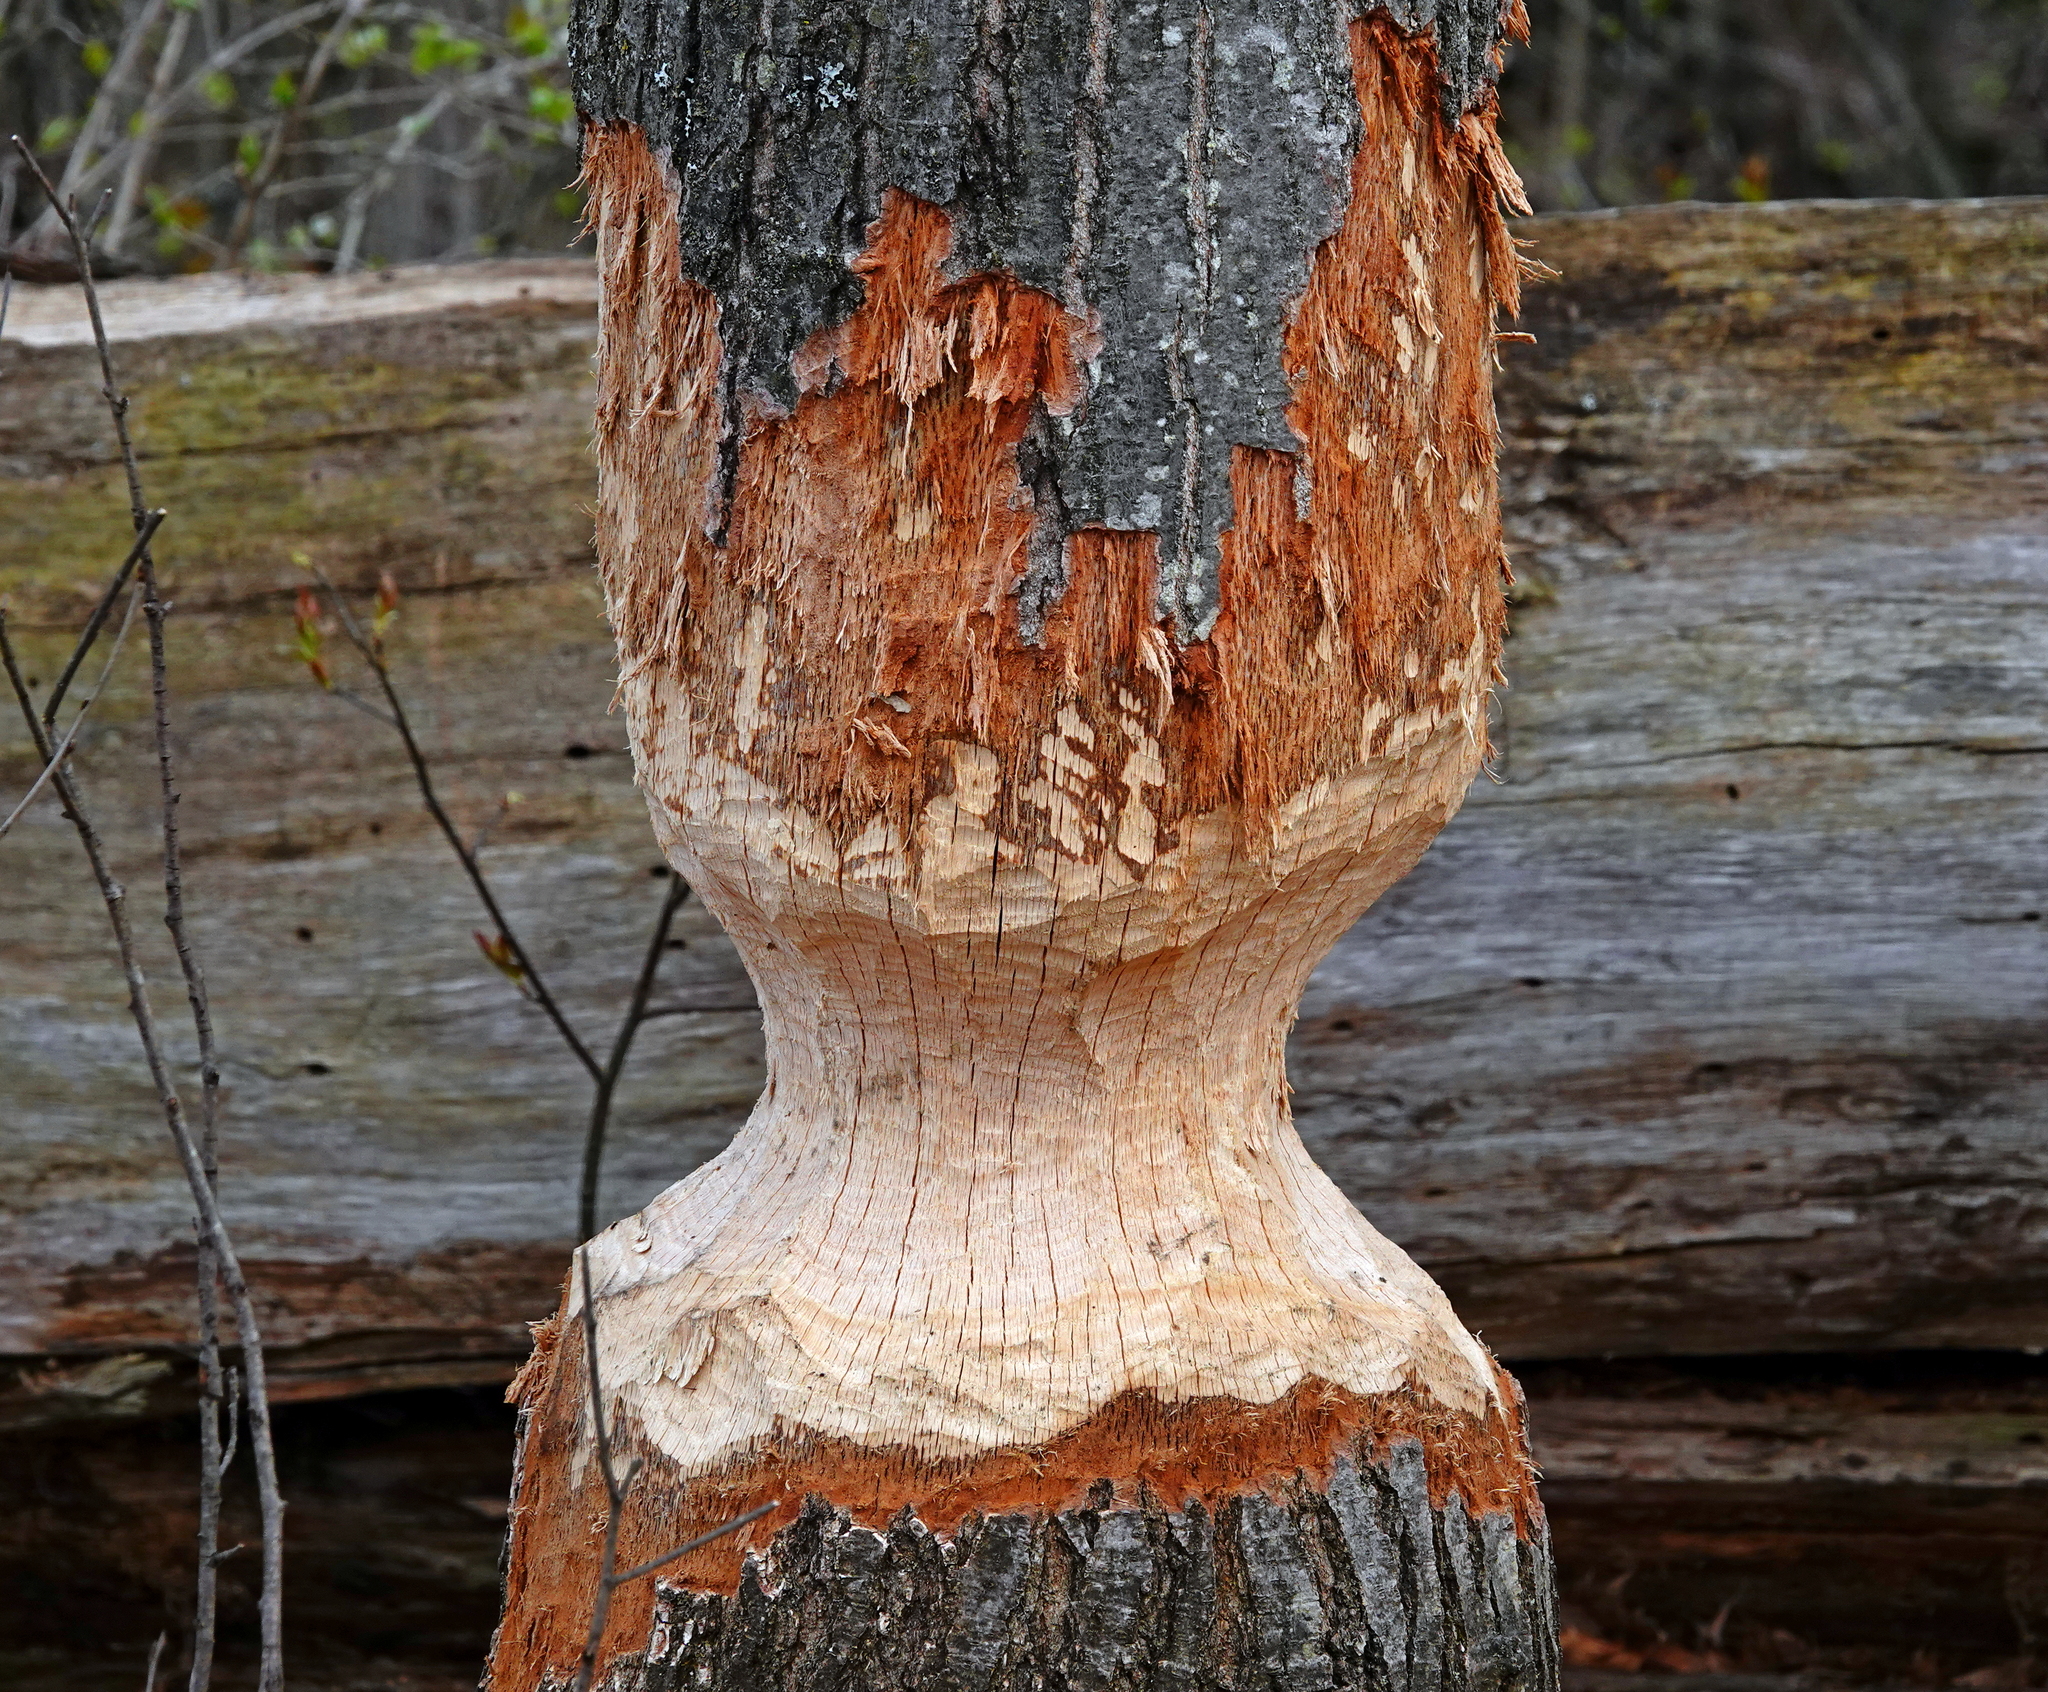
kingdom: Animalia
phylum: Chordata
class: Mammalia
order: Rodentia
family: Castoridae
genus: Castor
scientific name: Castor canadensis
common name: American beaver
